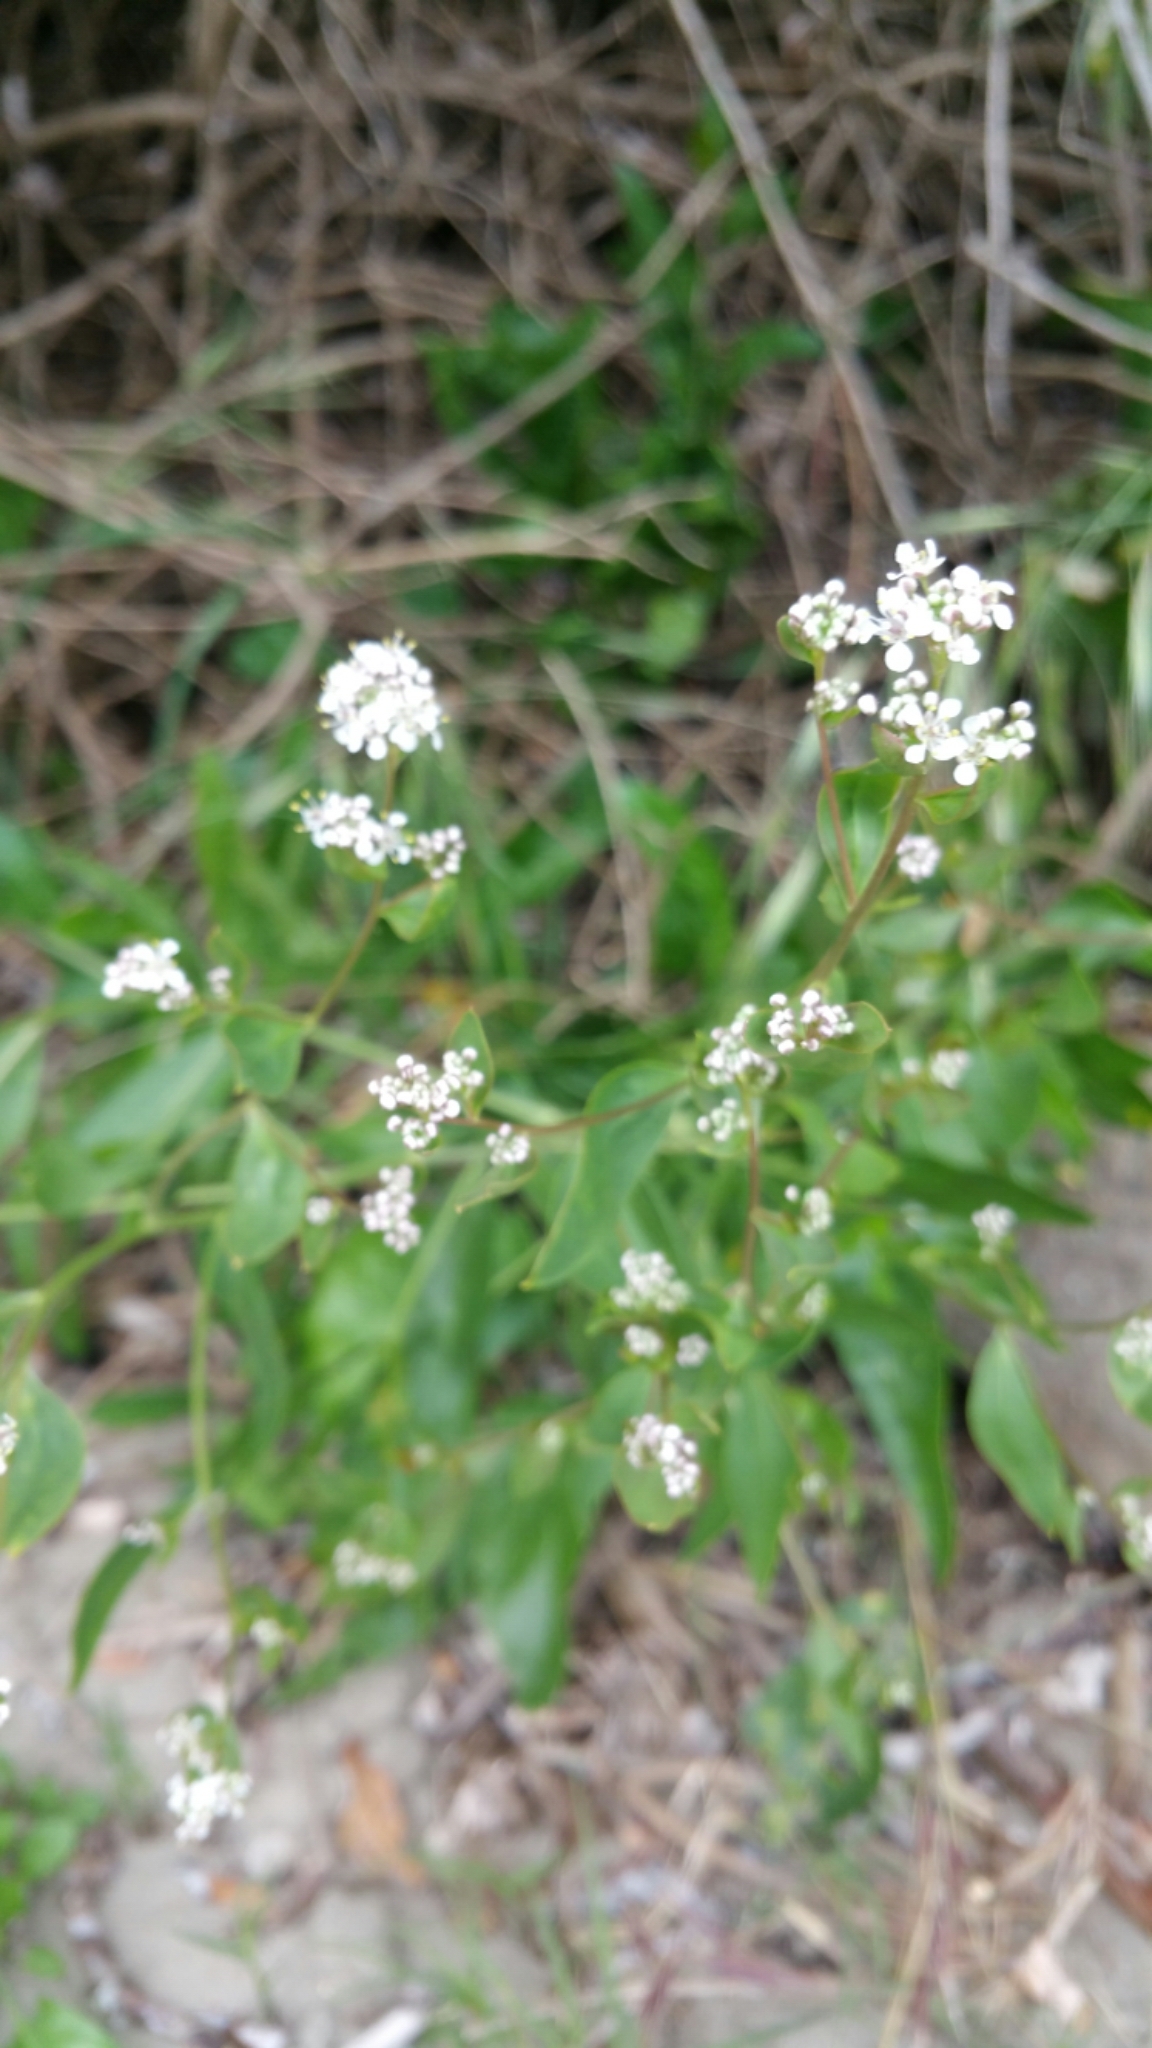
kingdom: Plantae
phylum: Tracheophyta
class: Magnoliopsida
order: Brassicales
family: Brassicaceae
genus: Lepidium
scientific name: Lepidium latifolium
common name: Dittander
